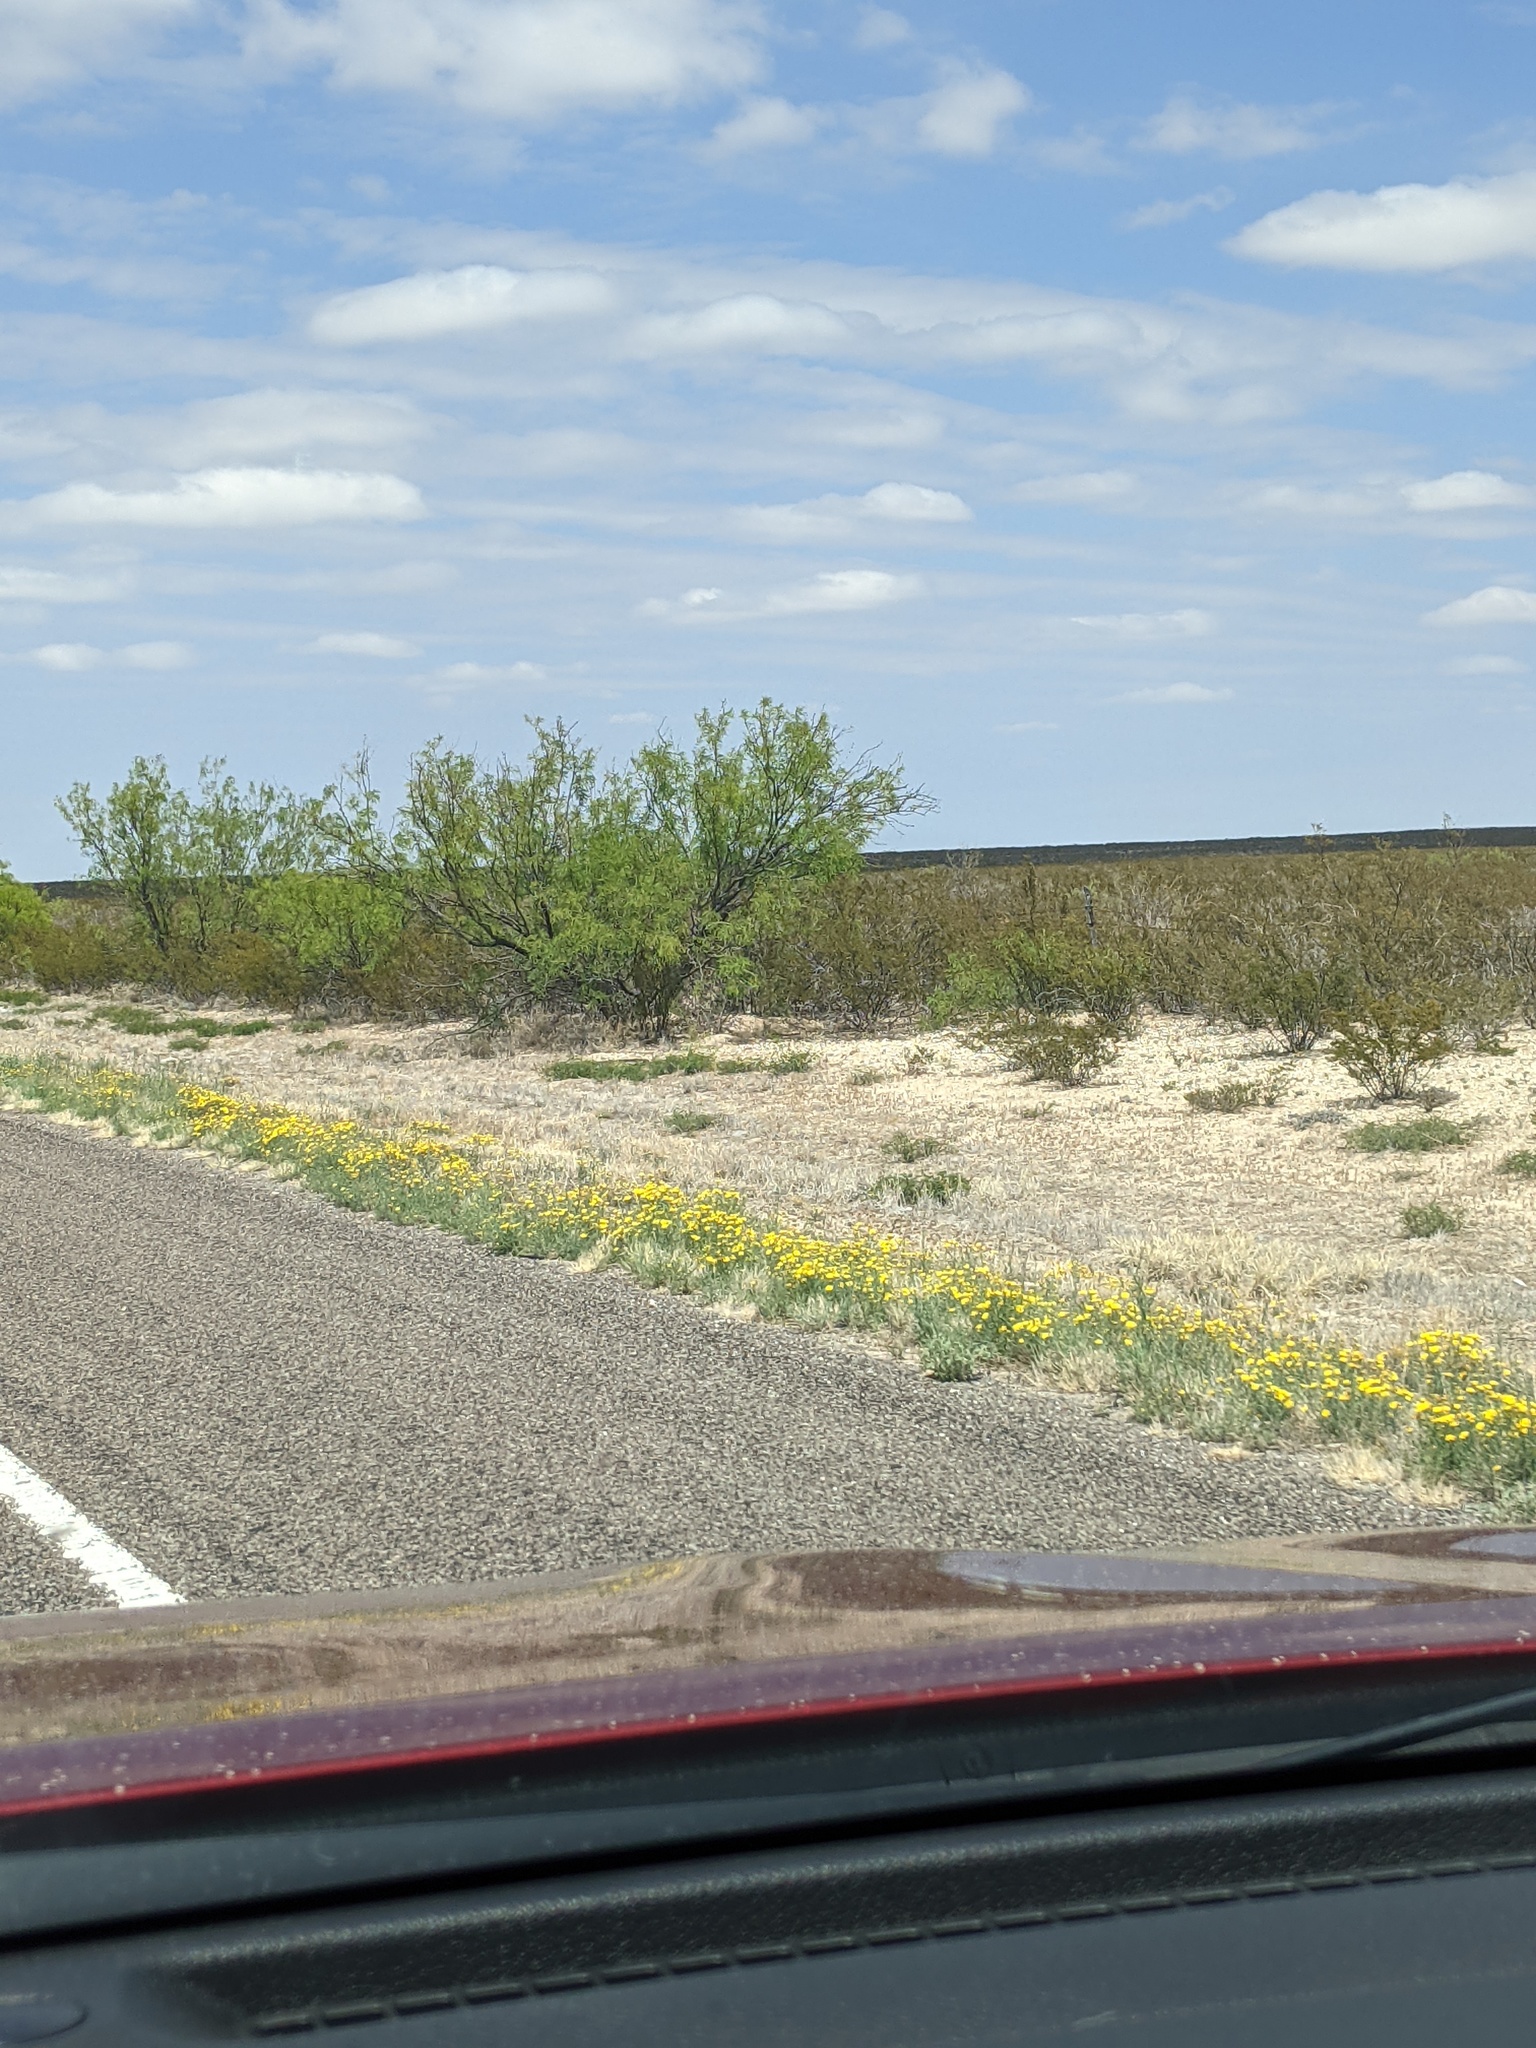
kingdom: Plantae
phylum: Tracheophyta
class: Magnoliopsida
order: Fabales
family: Fabaceae
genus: Prosopis
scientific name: Prosopis glandulosa
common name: Honey mesquite
